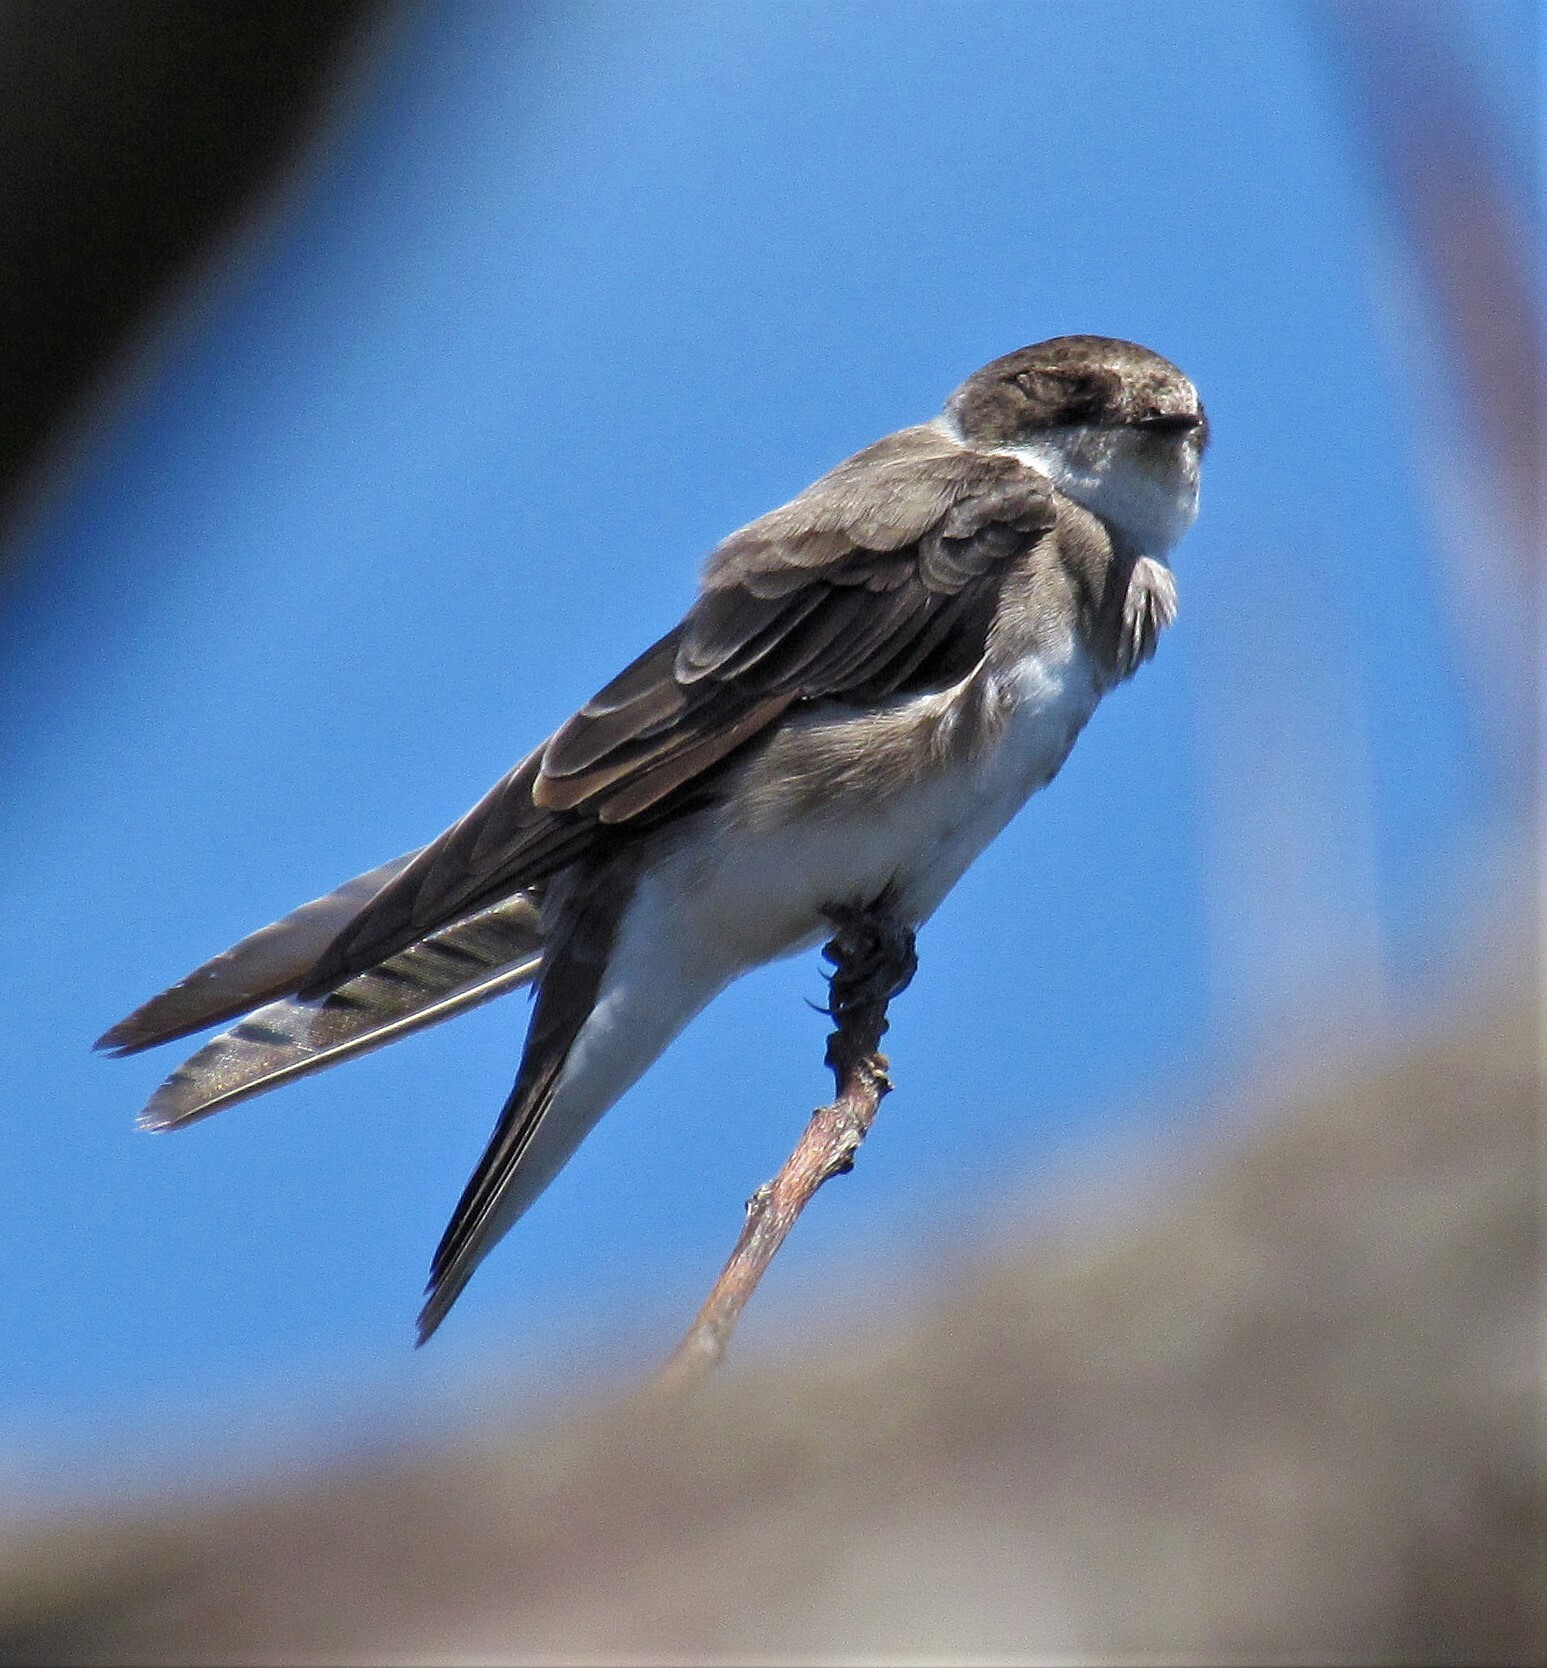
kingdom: Animalia
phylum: Chordata
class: Aves
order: Passeriformes
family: Hirundinidae
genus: Riparia
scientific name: Riparia riparia
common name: Sand martin
